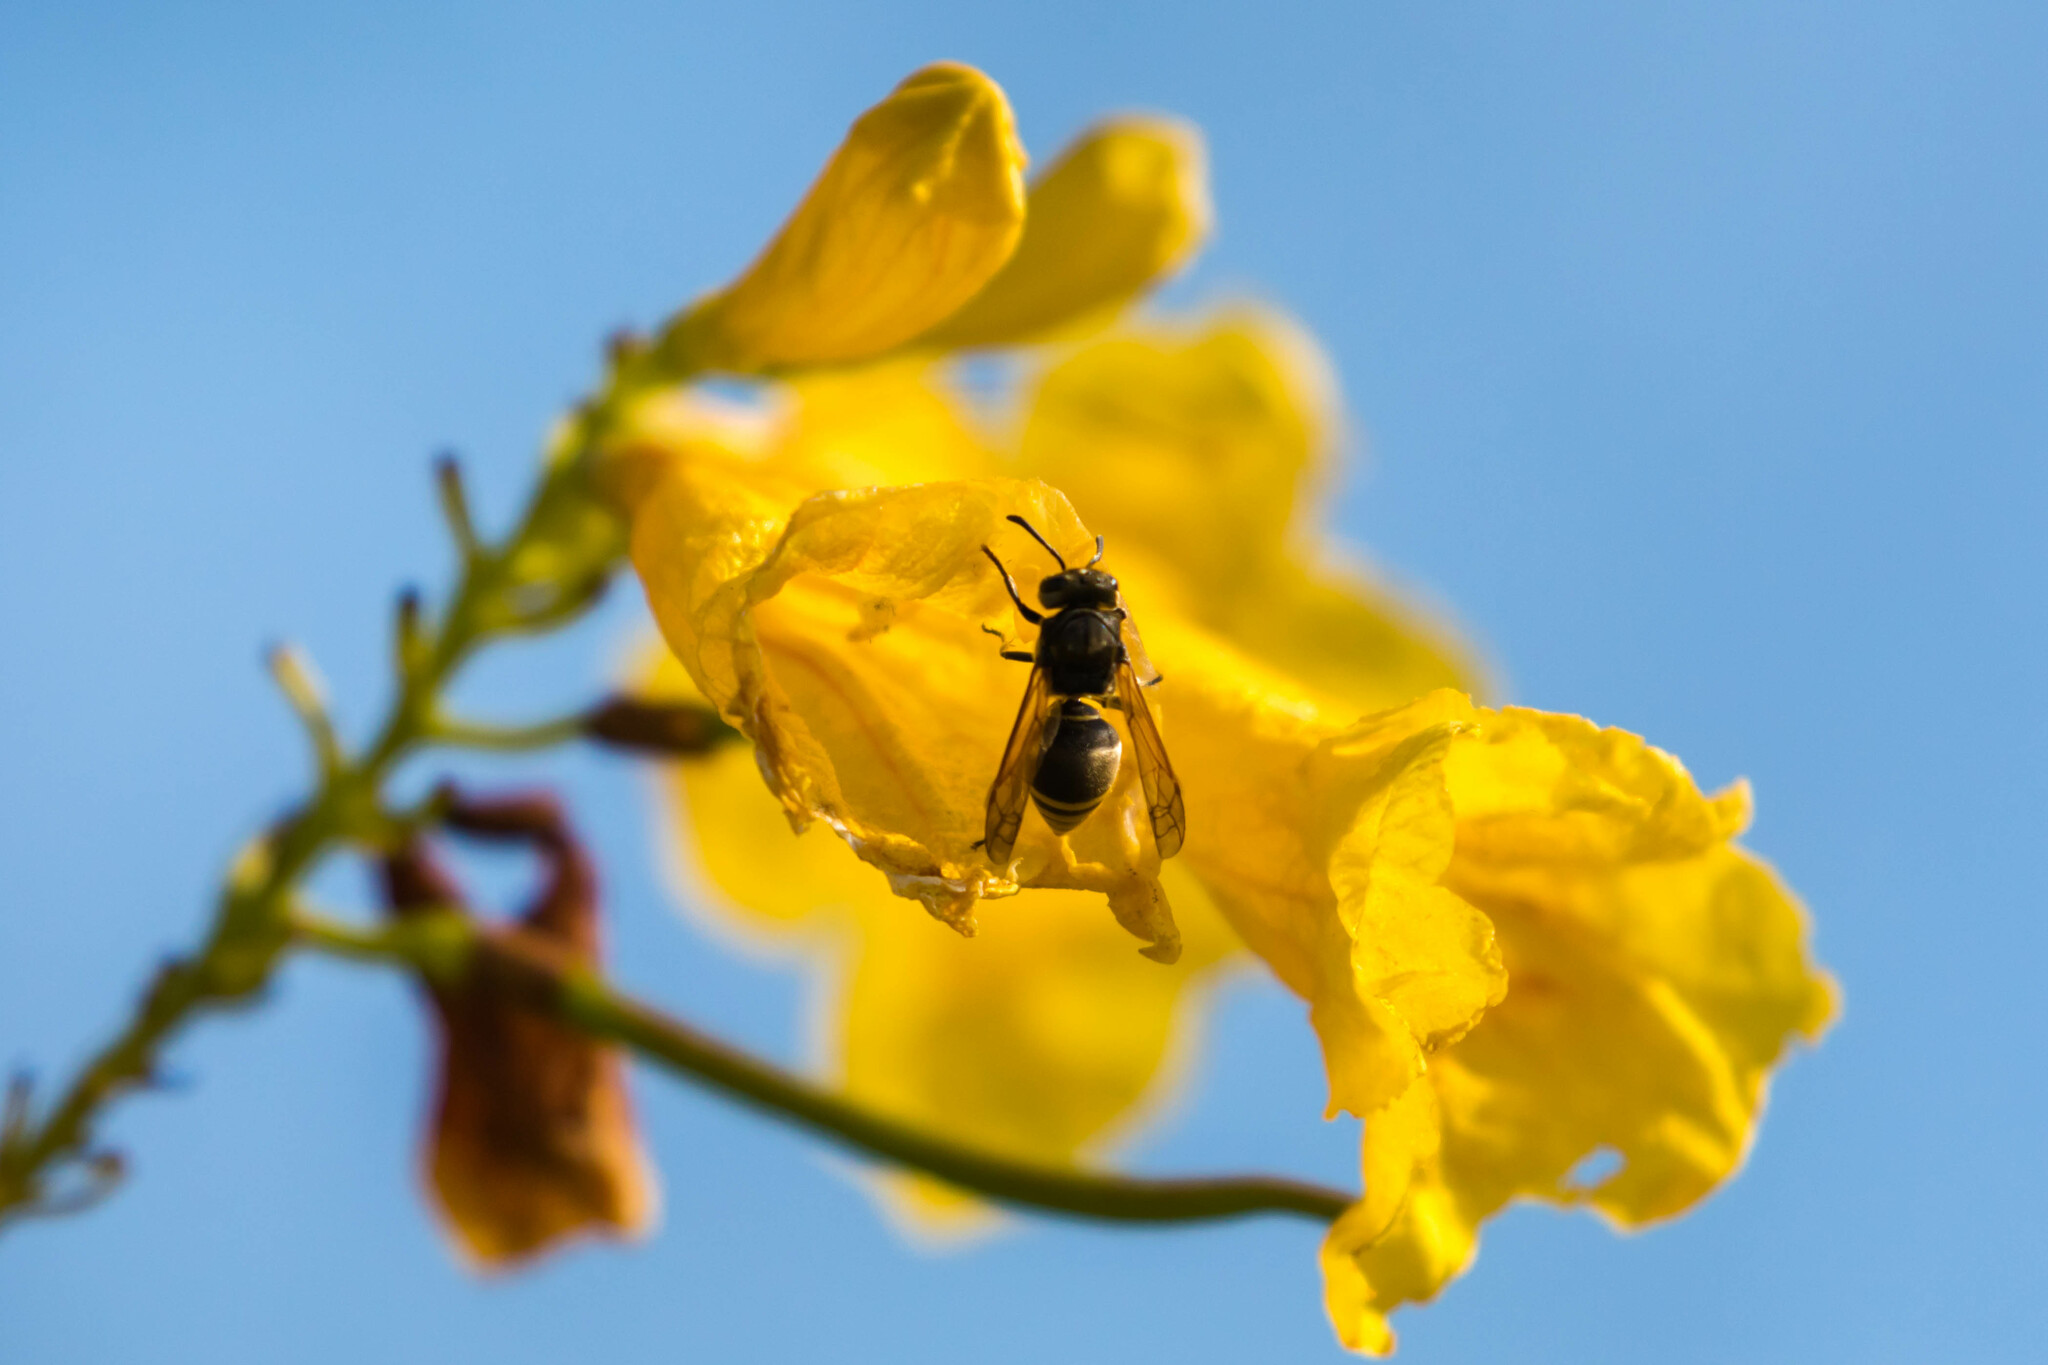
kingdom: Animalia
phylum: Arthropoda
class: Insecta
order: Hymenoptera
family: Vespidae
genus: Brachygastra
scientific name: Brachygastra mellifica
